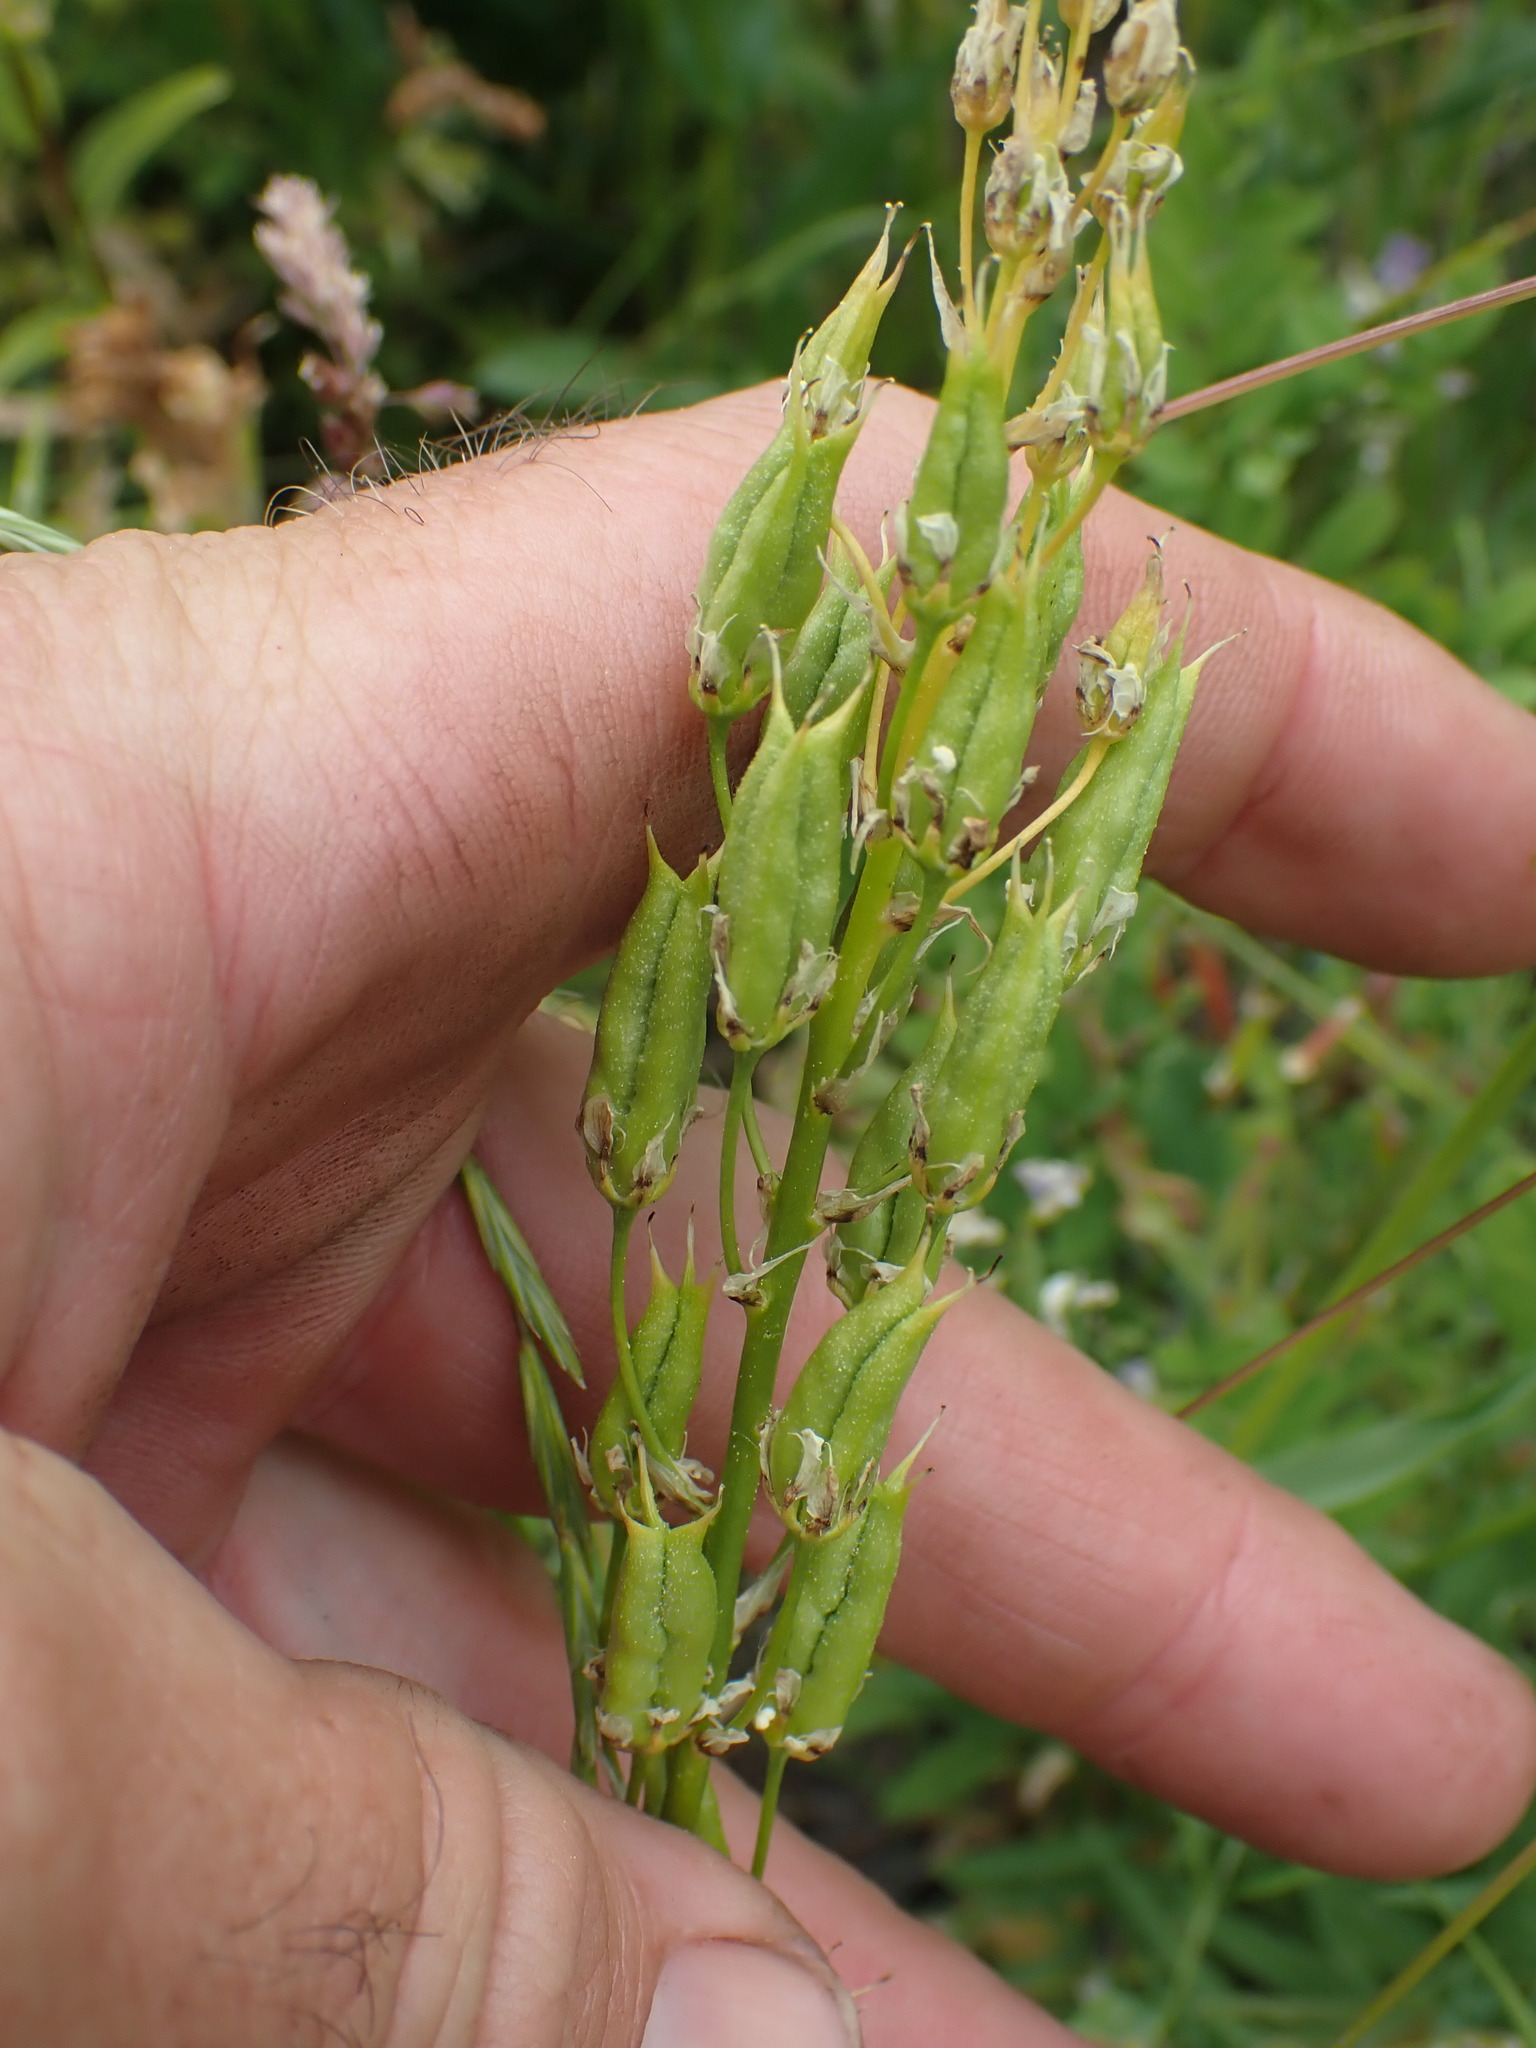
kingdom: Plantae
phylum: Tracheophyta
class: Liliopsida
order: Liliales
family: Melanthiaceae
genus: Toxicoscordion
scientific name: Toxicoscordion venenosum
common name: Meadow death camas
